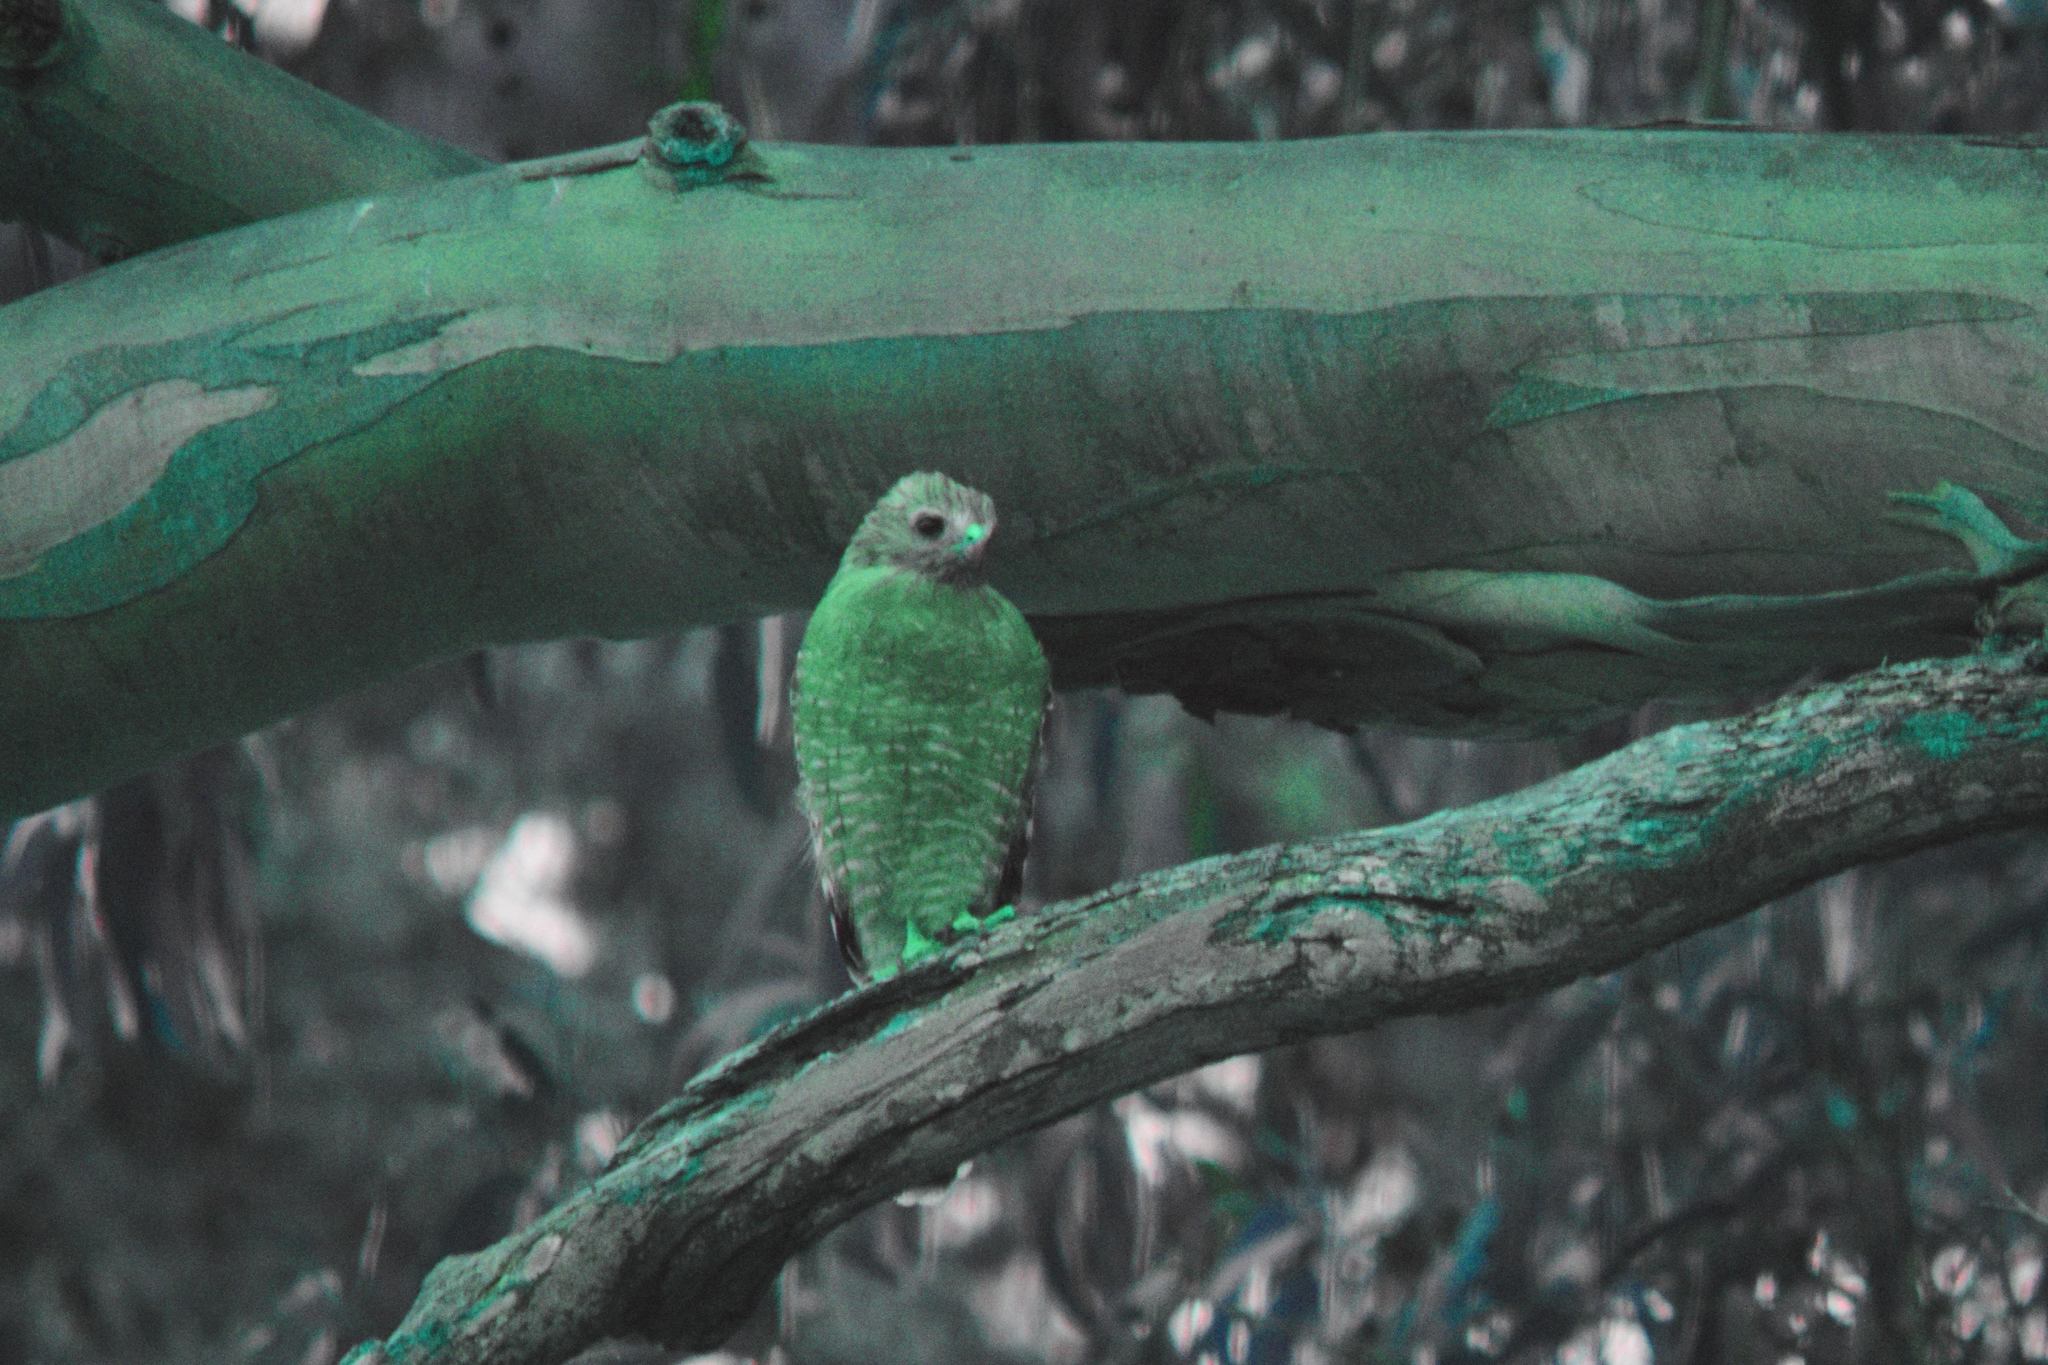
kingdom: Animalia
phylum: Chordata
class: Aves
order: Accipitriformes
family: Accipitridae
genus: Buteo
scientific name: Buteo lineatus
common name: Red-shouldered hawk
